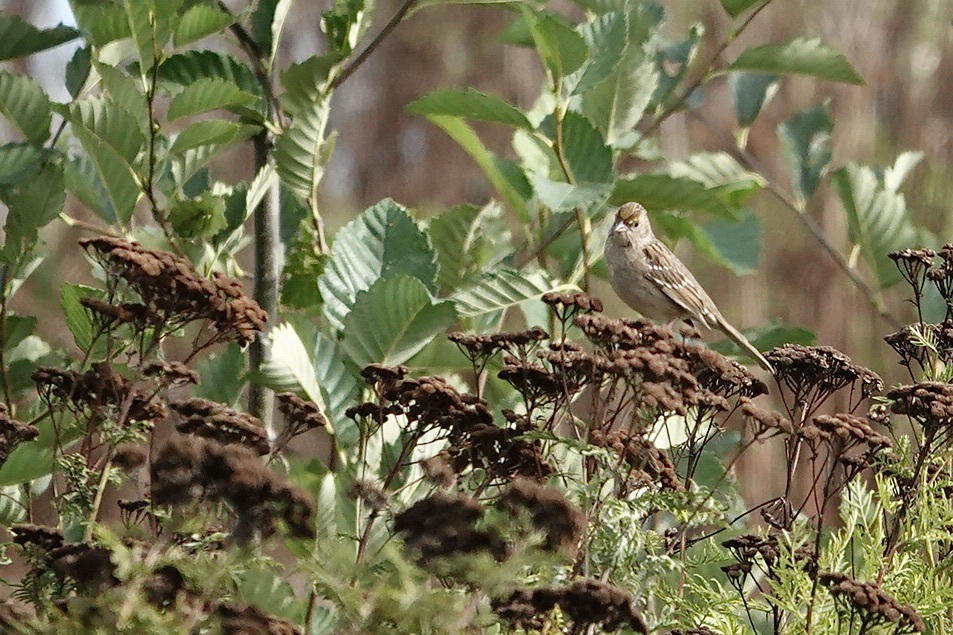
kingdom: Animalia
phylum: Chordata
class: Aves
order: Passeriformes
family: Passerellidae
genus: Zonotrichia
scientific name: Zonotrichia atricapilla
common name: Golden-crowned sparrow
